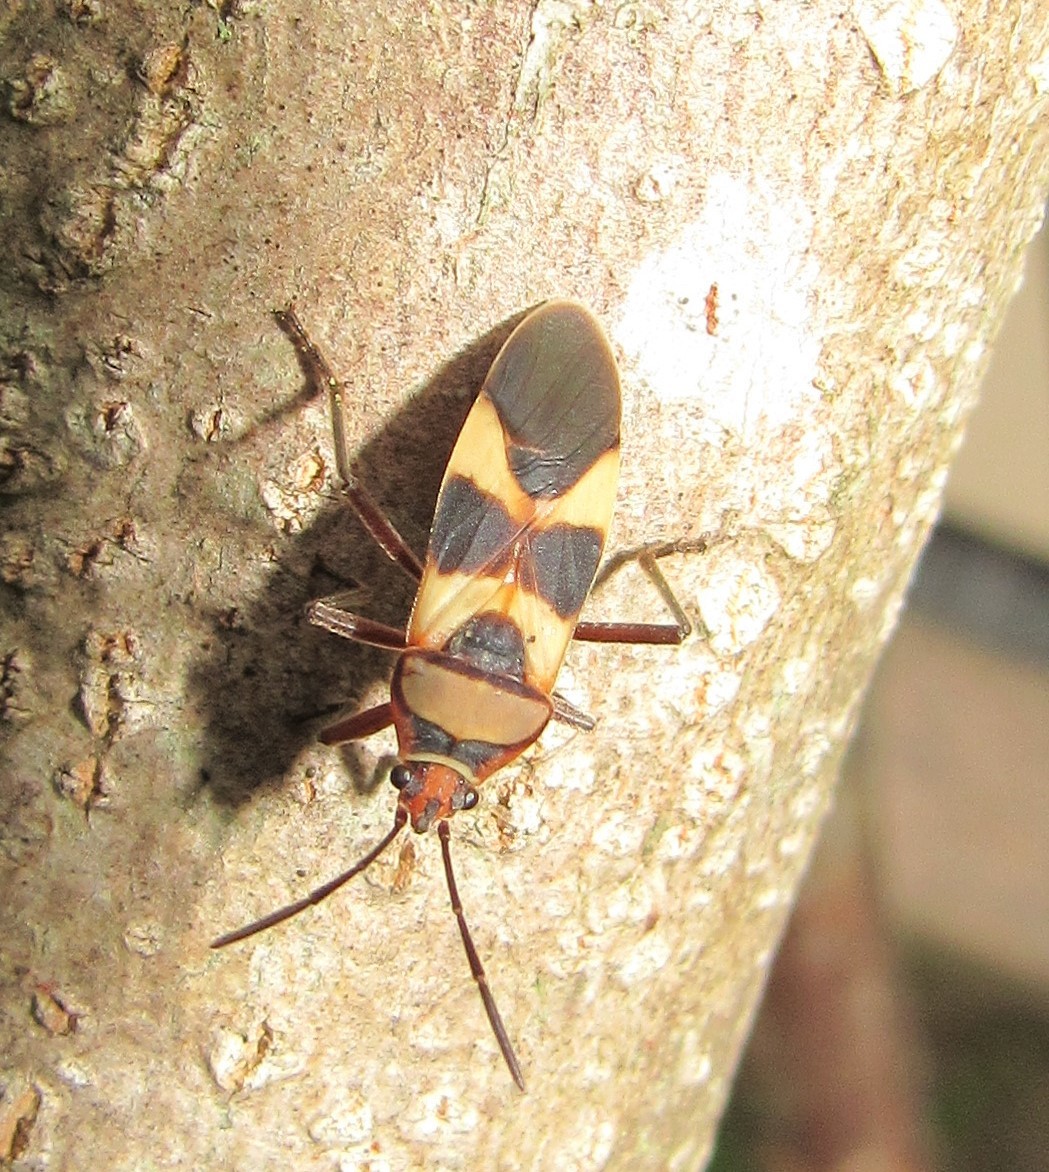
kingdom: Animalia
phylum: Arthropoda
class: Insecta
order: Hemiptera
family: Lygaeidae
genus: Oncopeltus
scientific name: Oncopeltus unifasciatellus
